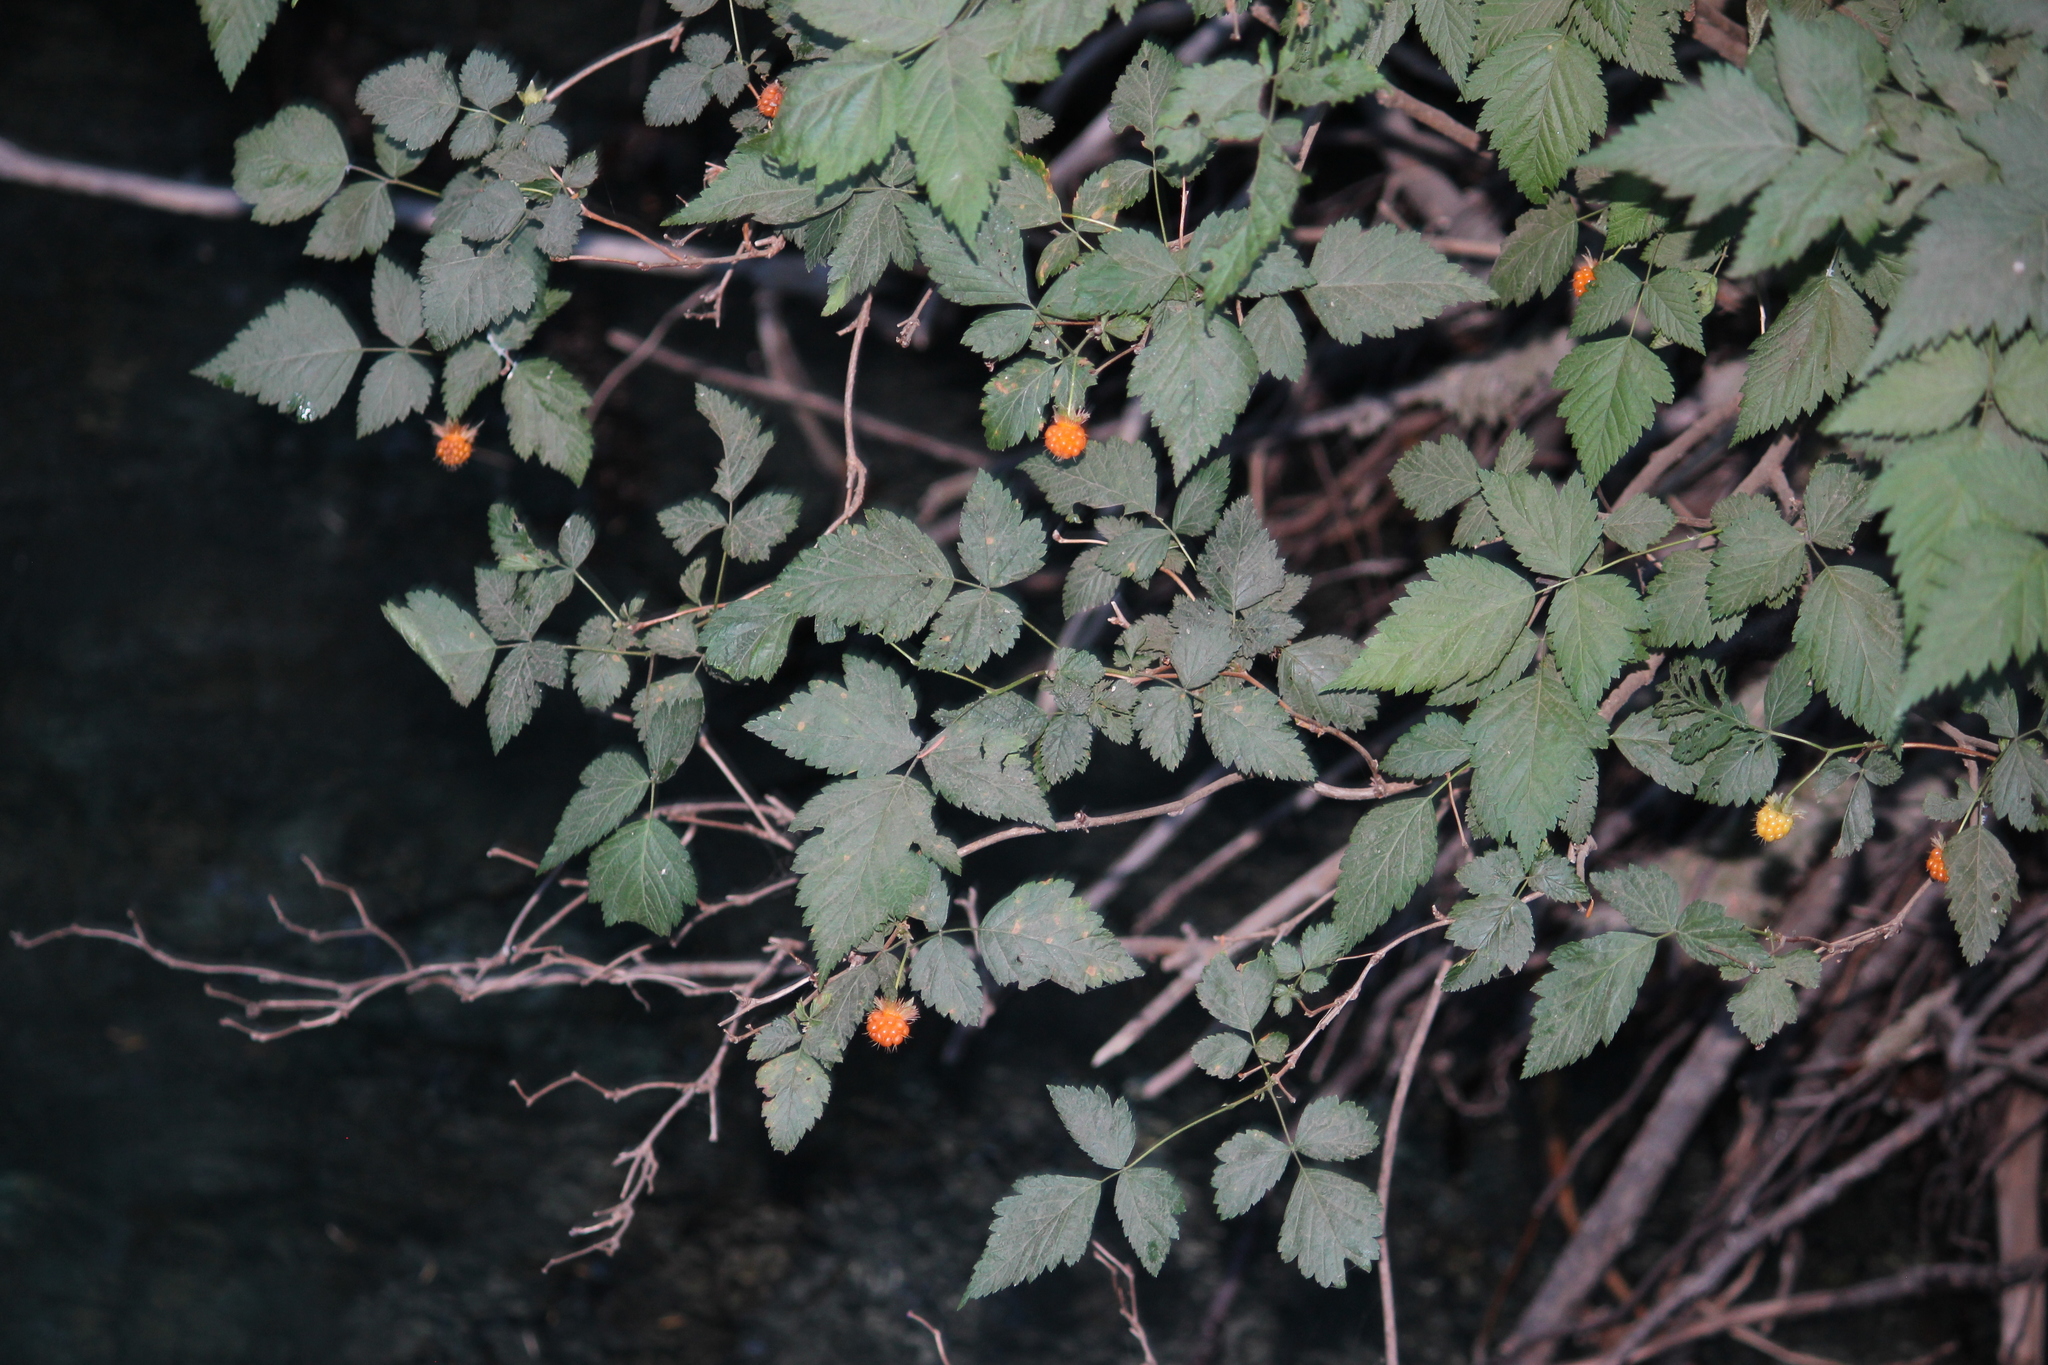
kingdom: Plantae
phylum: Tracheophyta
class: Magnoliopsida
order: Rosales
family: Rosaceae
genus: Rubus
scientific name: Rubus spectabilis
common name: Salmonberry
